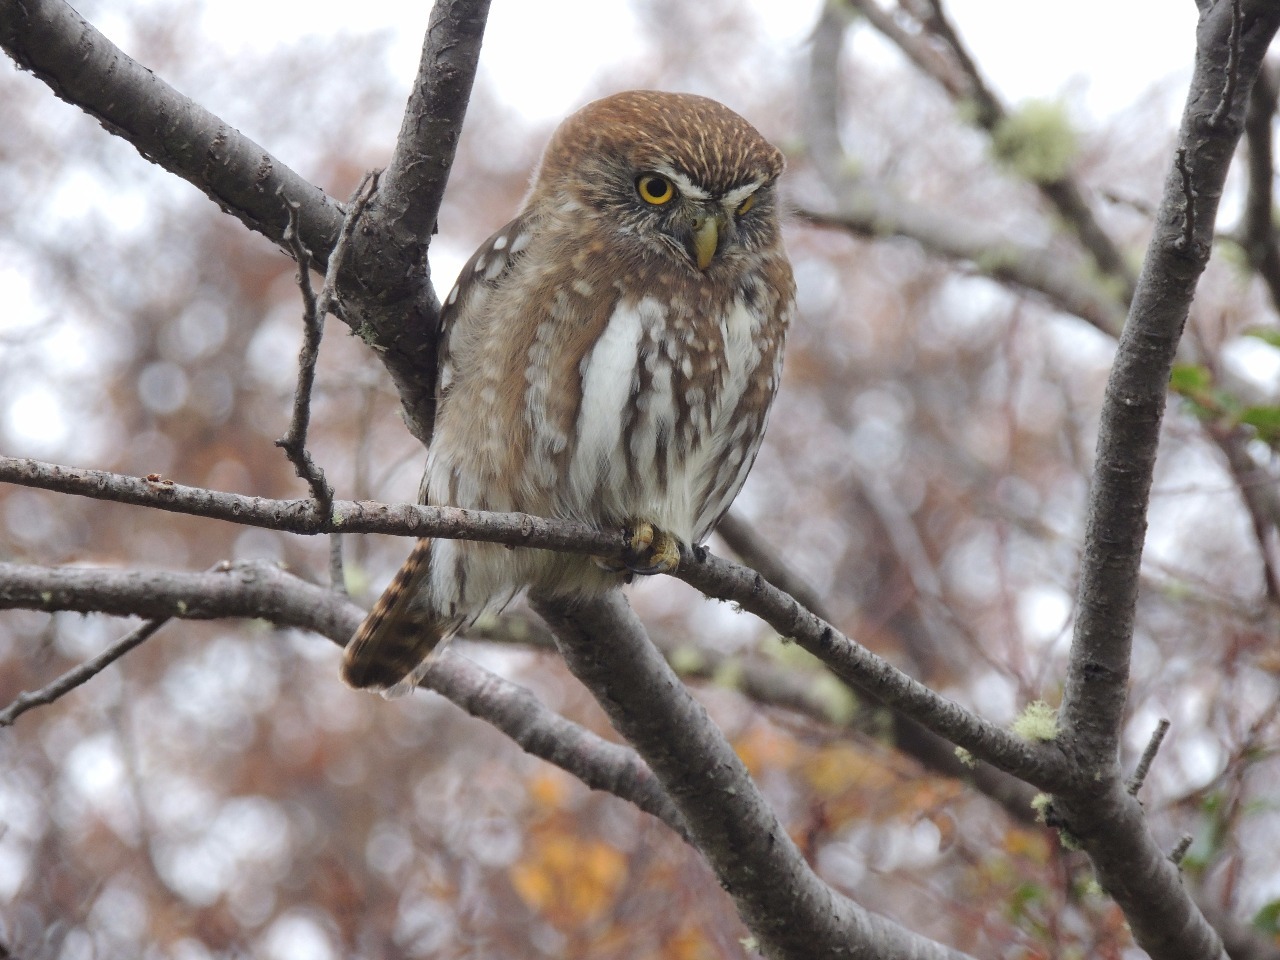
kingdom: Animalia
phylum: Chordata
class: Aves
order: Strigiformes
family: Strigidae
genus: Glaucidium
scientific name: Glaucidium nana
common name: Austral pygmy-owl
